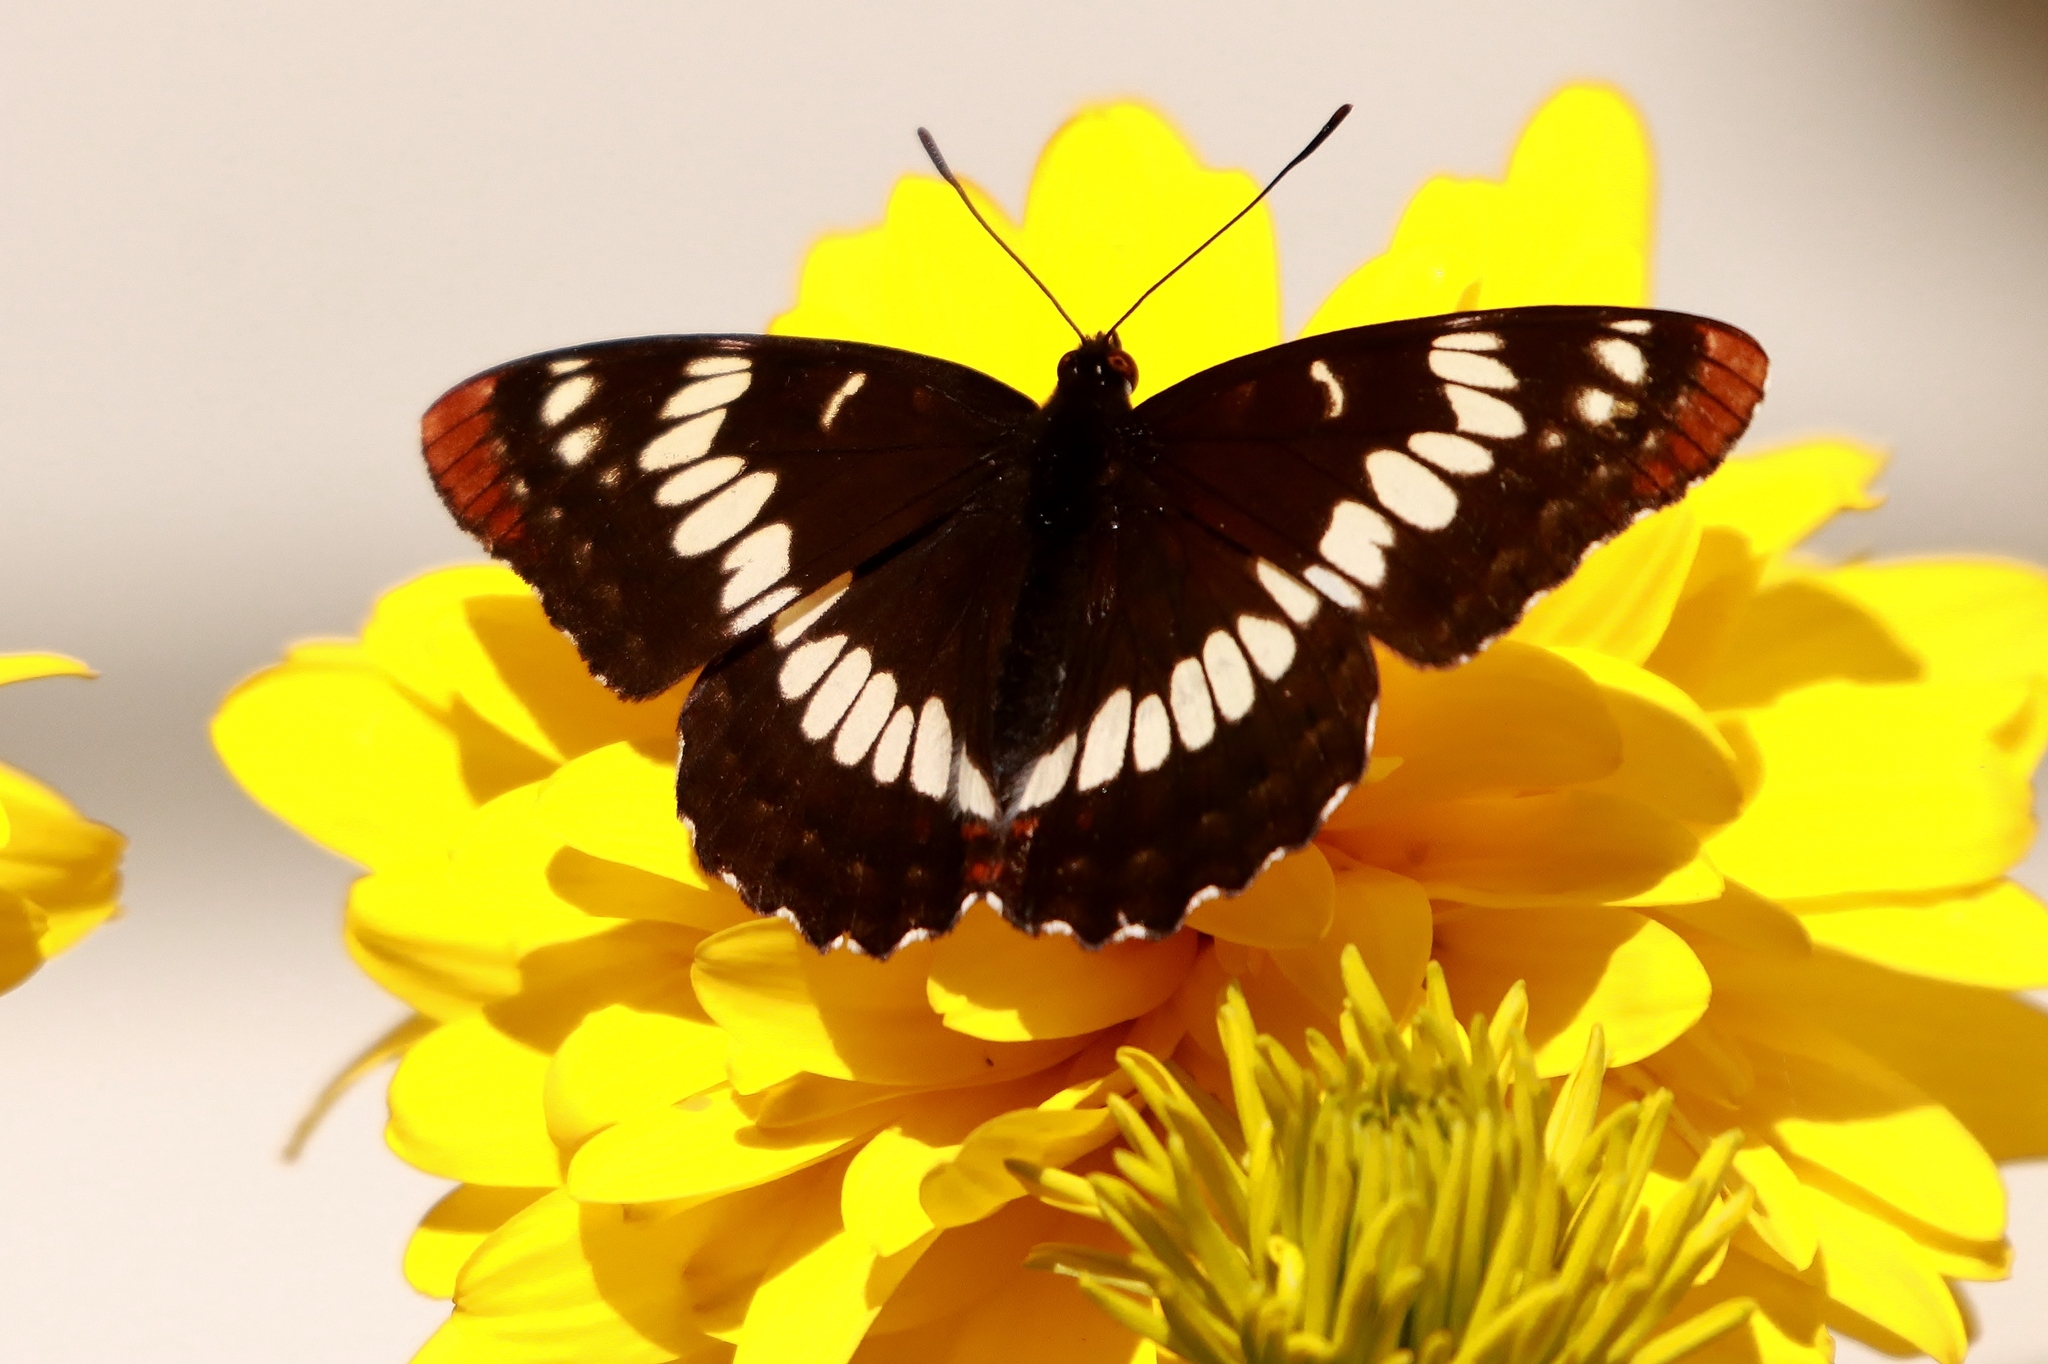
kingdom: Animalia
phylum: Arthropoda
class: Insecta
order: Lepidoptera
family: Nymphalidae
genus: Limenitis
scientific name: Limenitis lorquini
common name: Lorquin's admiral
